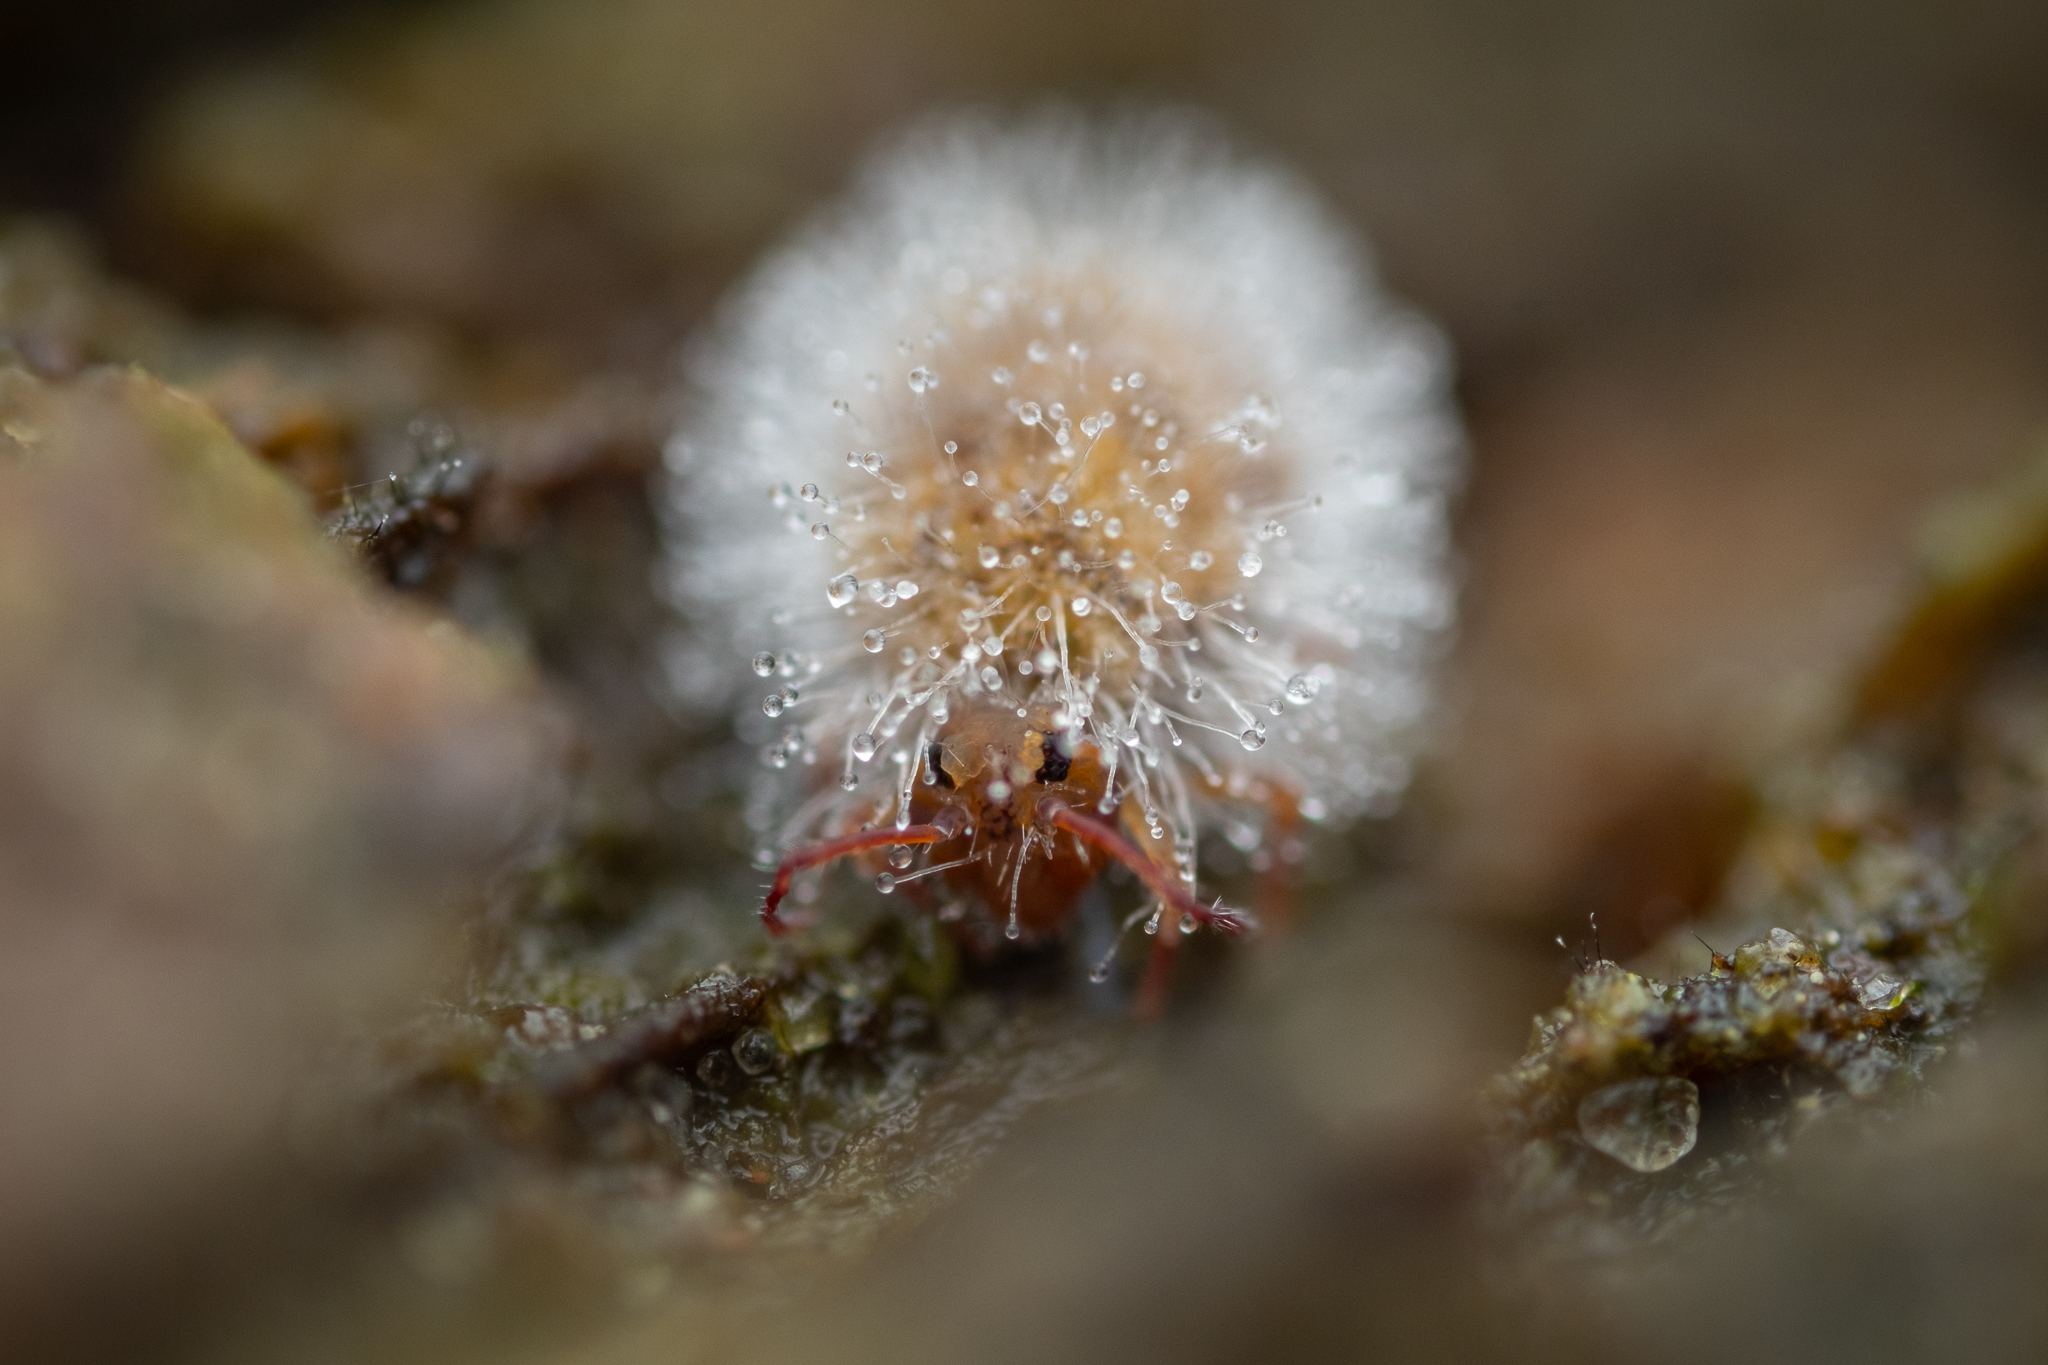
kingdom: Fungi
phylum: Entomophthoromycota
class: Entomophthoromycetes
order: Entomophthorales
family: Entomophthoraceae
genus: Pandora
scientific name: Pandora batallata
